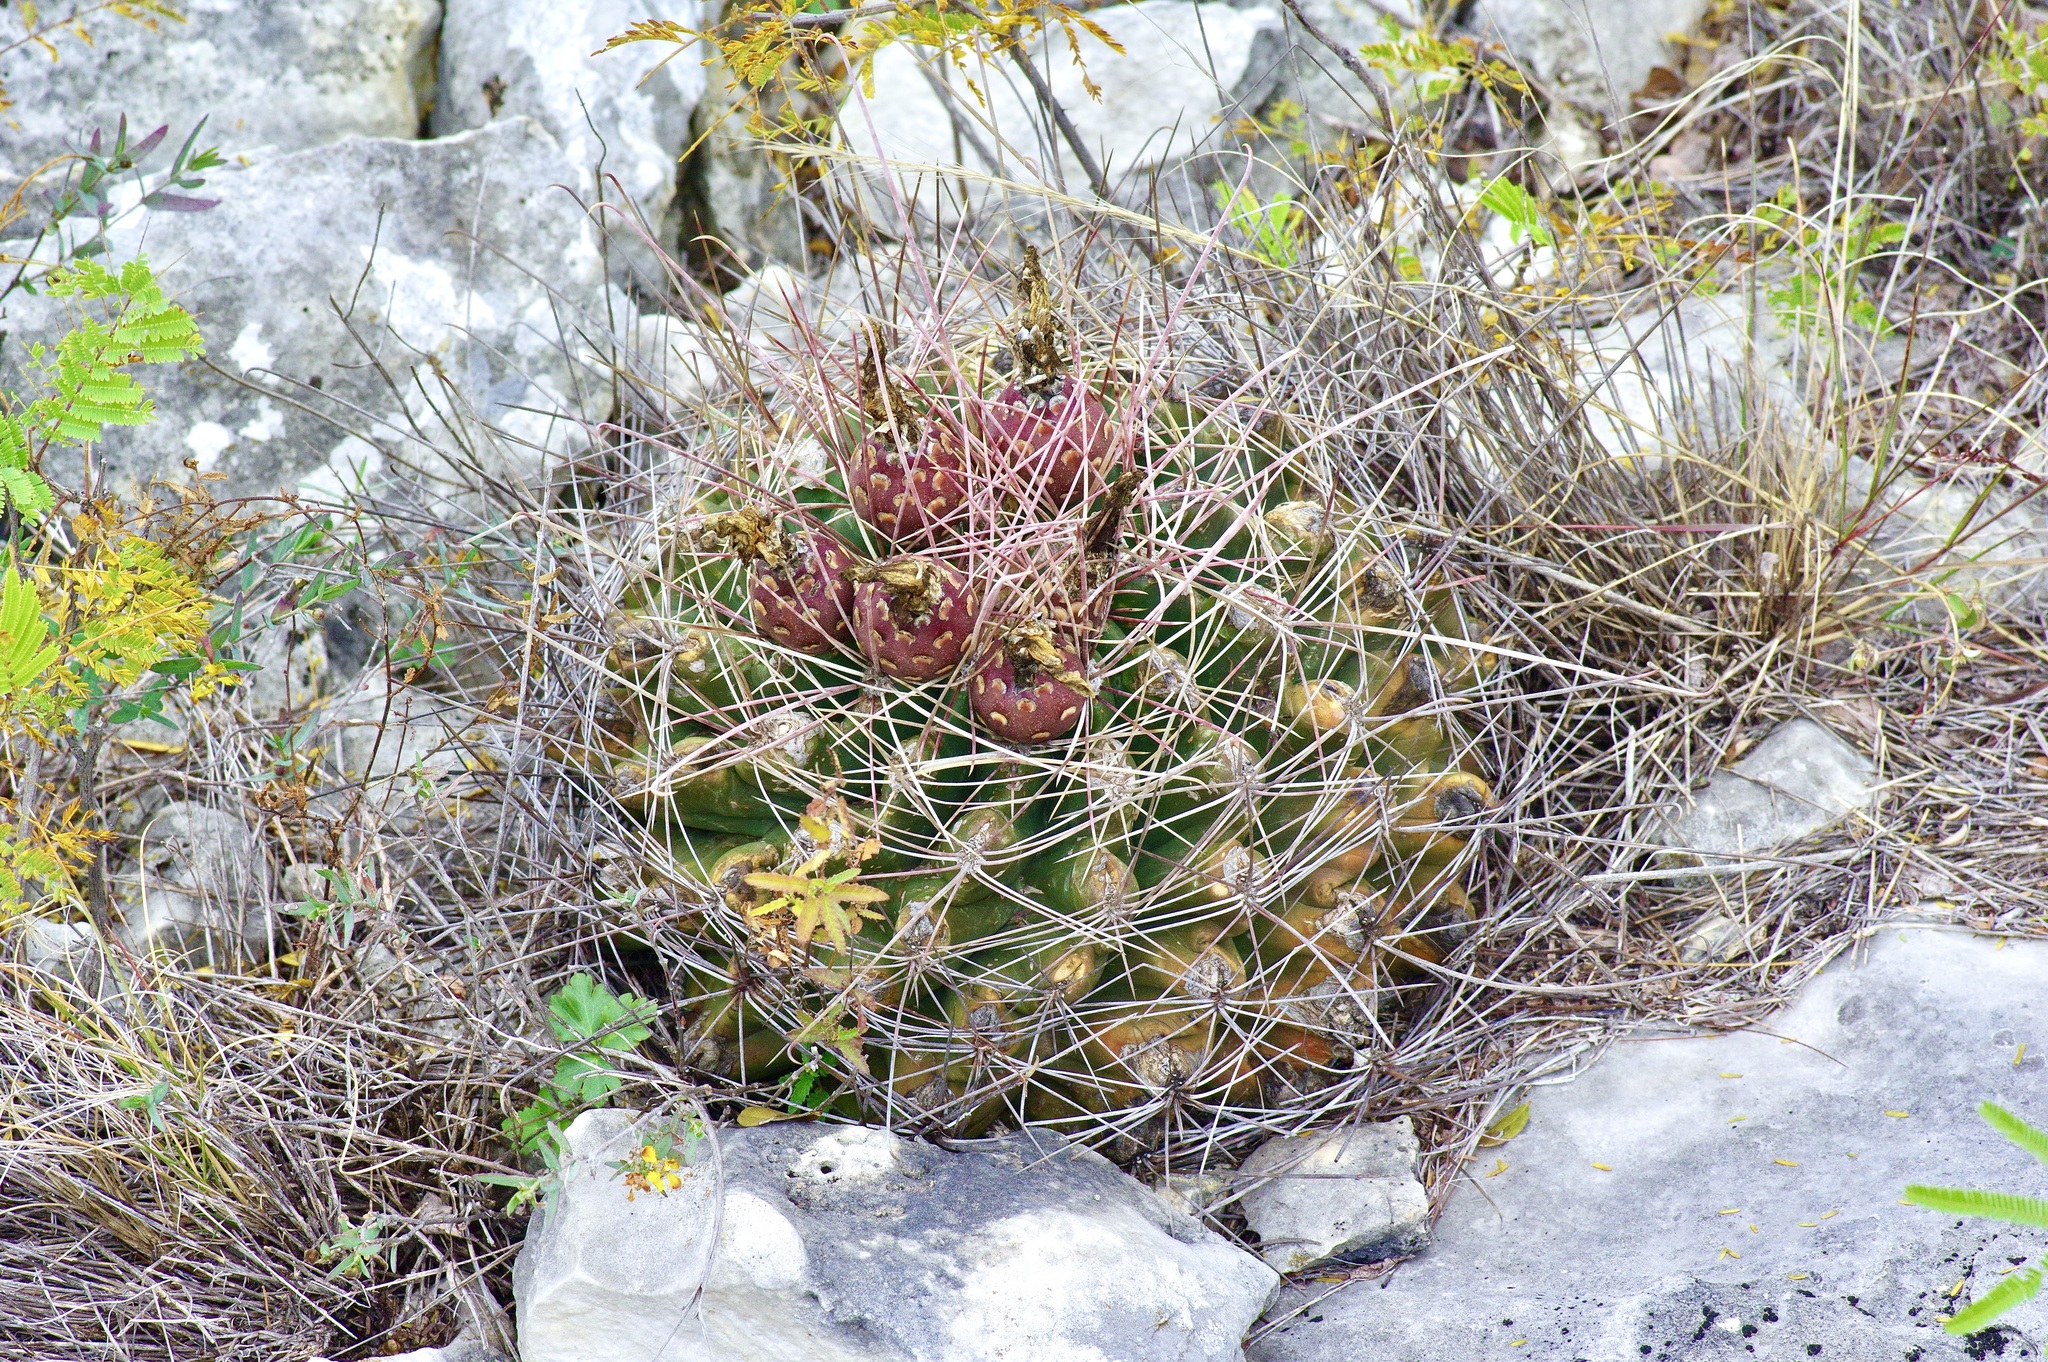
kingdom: Plantae
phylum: Tracheophyta
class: Magnoliopsida
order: Caryophyllales
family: Cactaceae
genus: Bisnaga
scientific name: Bisnaga hamatacantha
